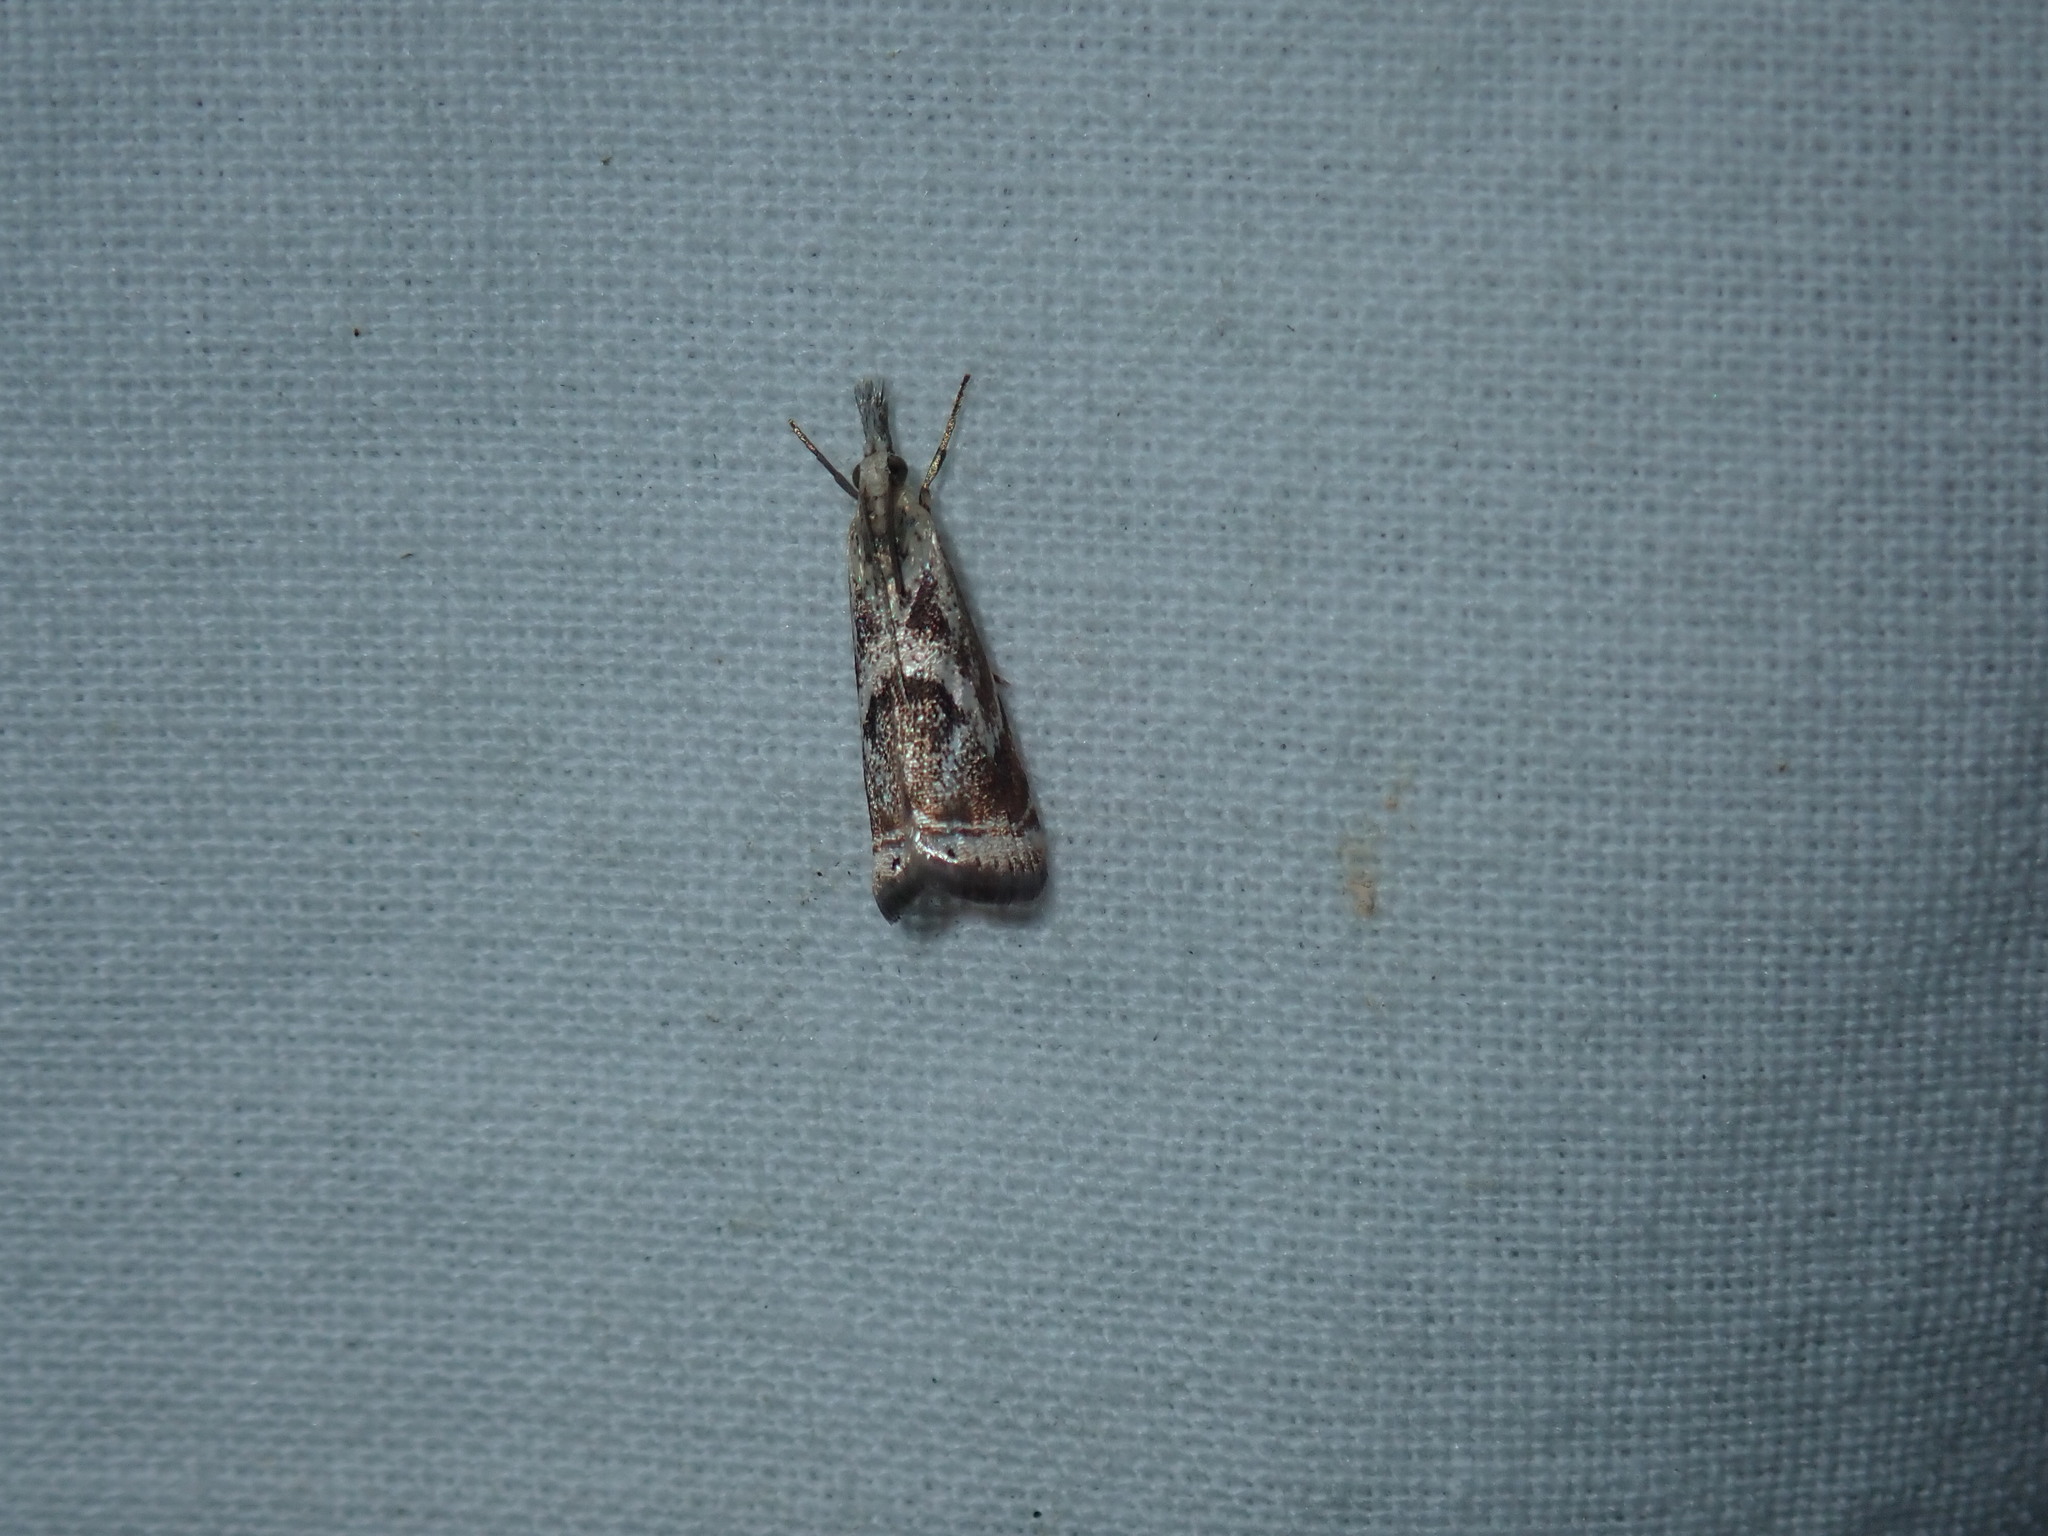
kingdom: Animalia
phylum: Arthropoda
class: Insecta
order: Lepidoptera
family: Crambidae
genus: Microcrambus
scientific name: Microcrambus elegans
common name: Elegant grass-veneer
